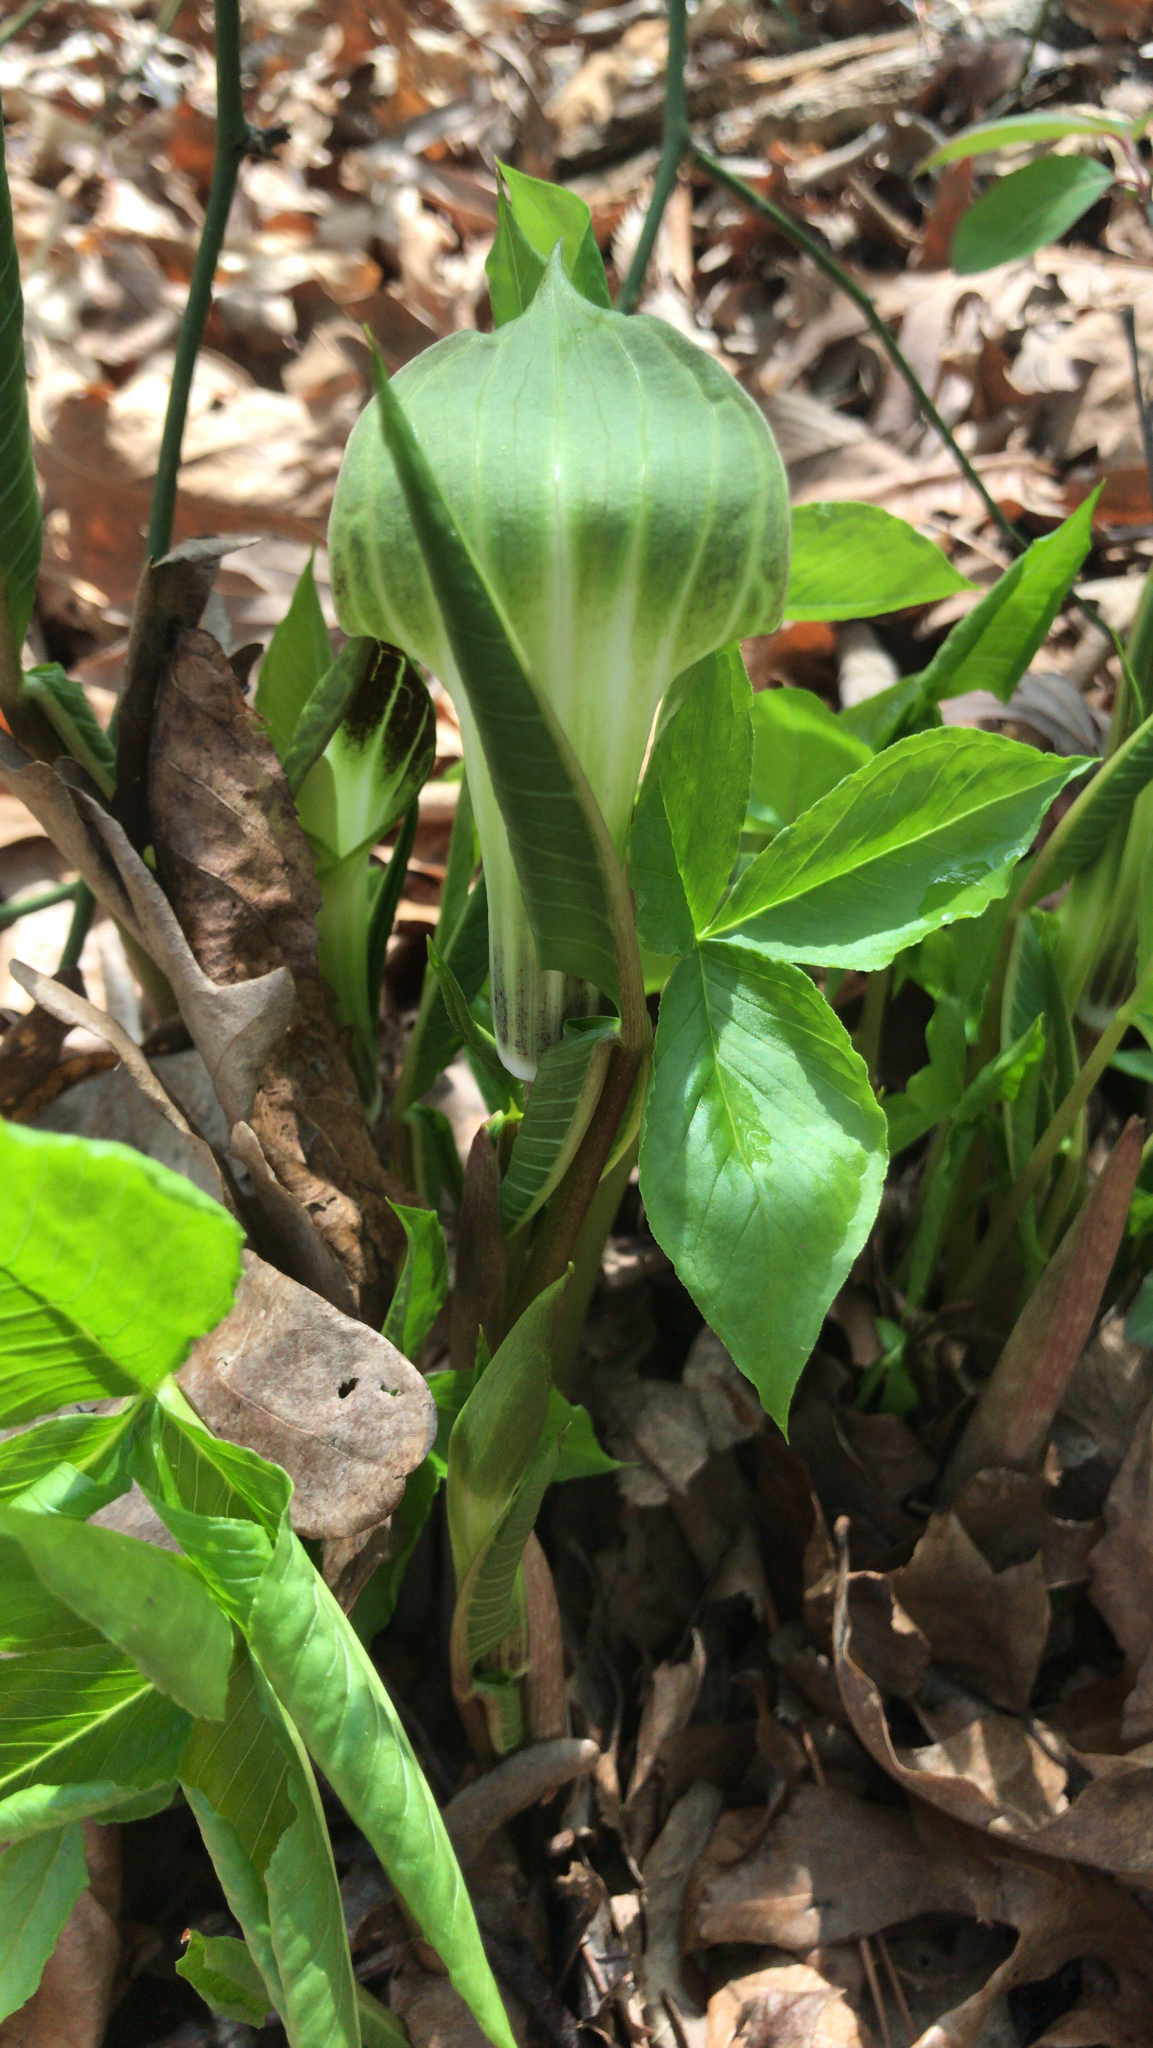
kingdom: Plantae
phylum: Tracheophyta
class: Liliopsida
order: Alismatales
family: Araceae
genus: Arisaema
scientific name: Arisaema triphyllum
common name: Jack-in-the-pulpit
